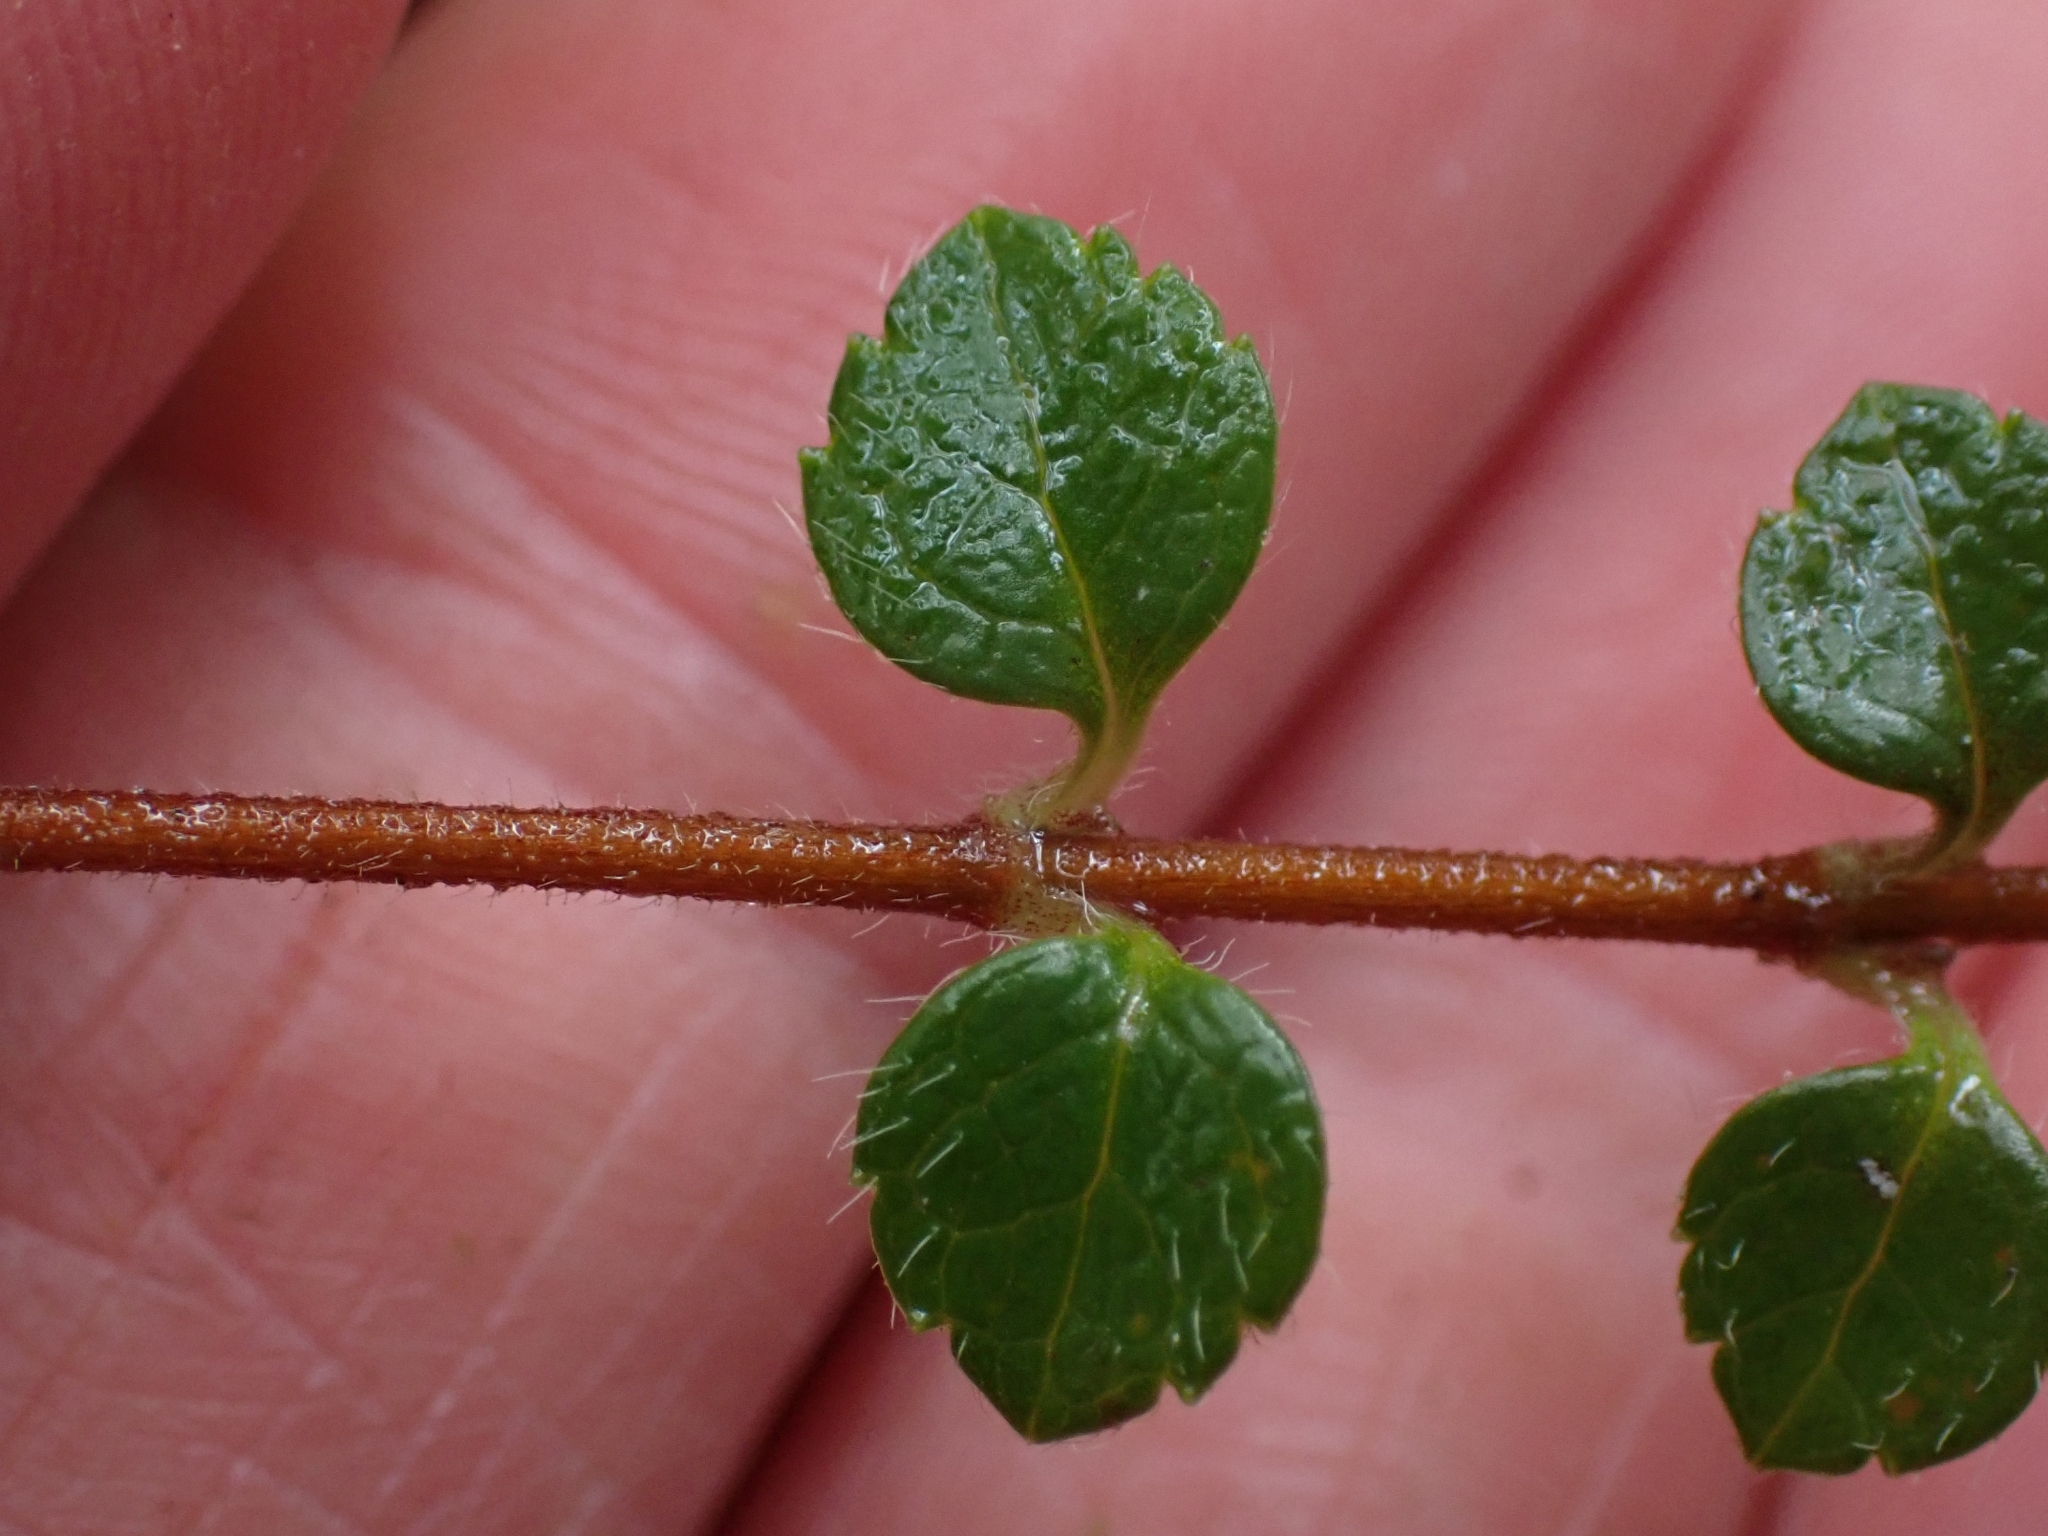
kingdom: Plantae
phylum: Tracheophyta
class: Magnoliopsida
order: Dipsacales
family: Caprifoliaceae
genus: Linnaea
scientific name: Linnaea borealis
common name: Twinflower
